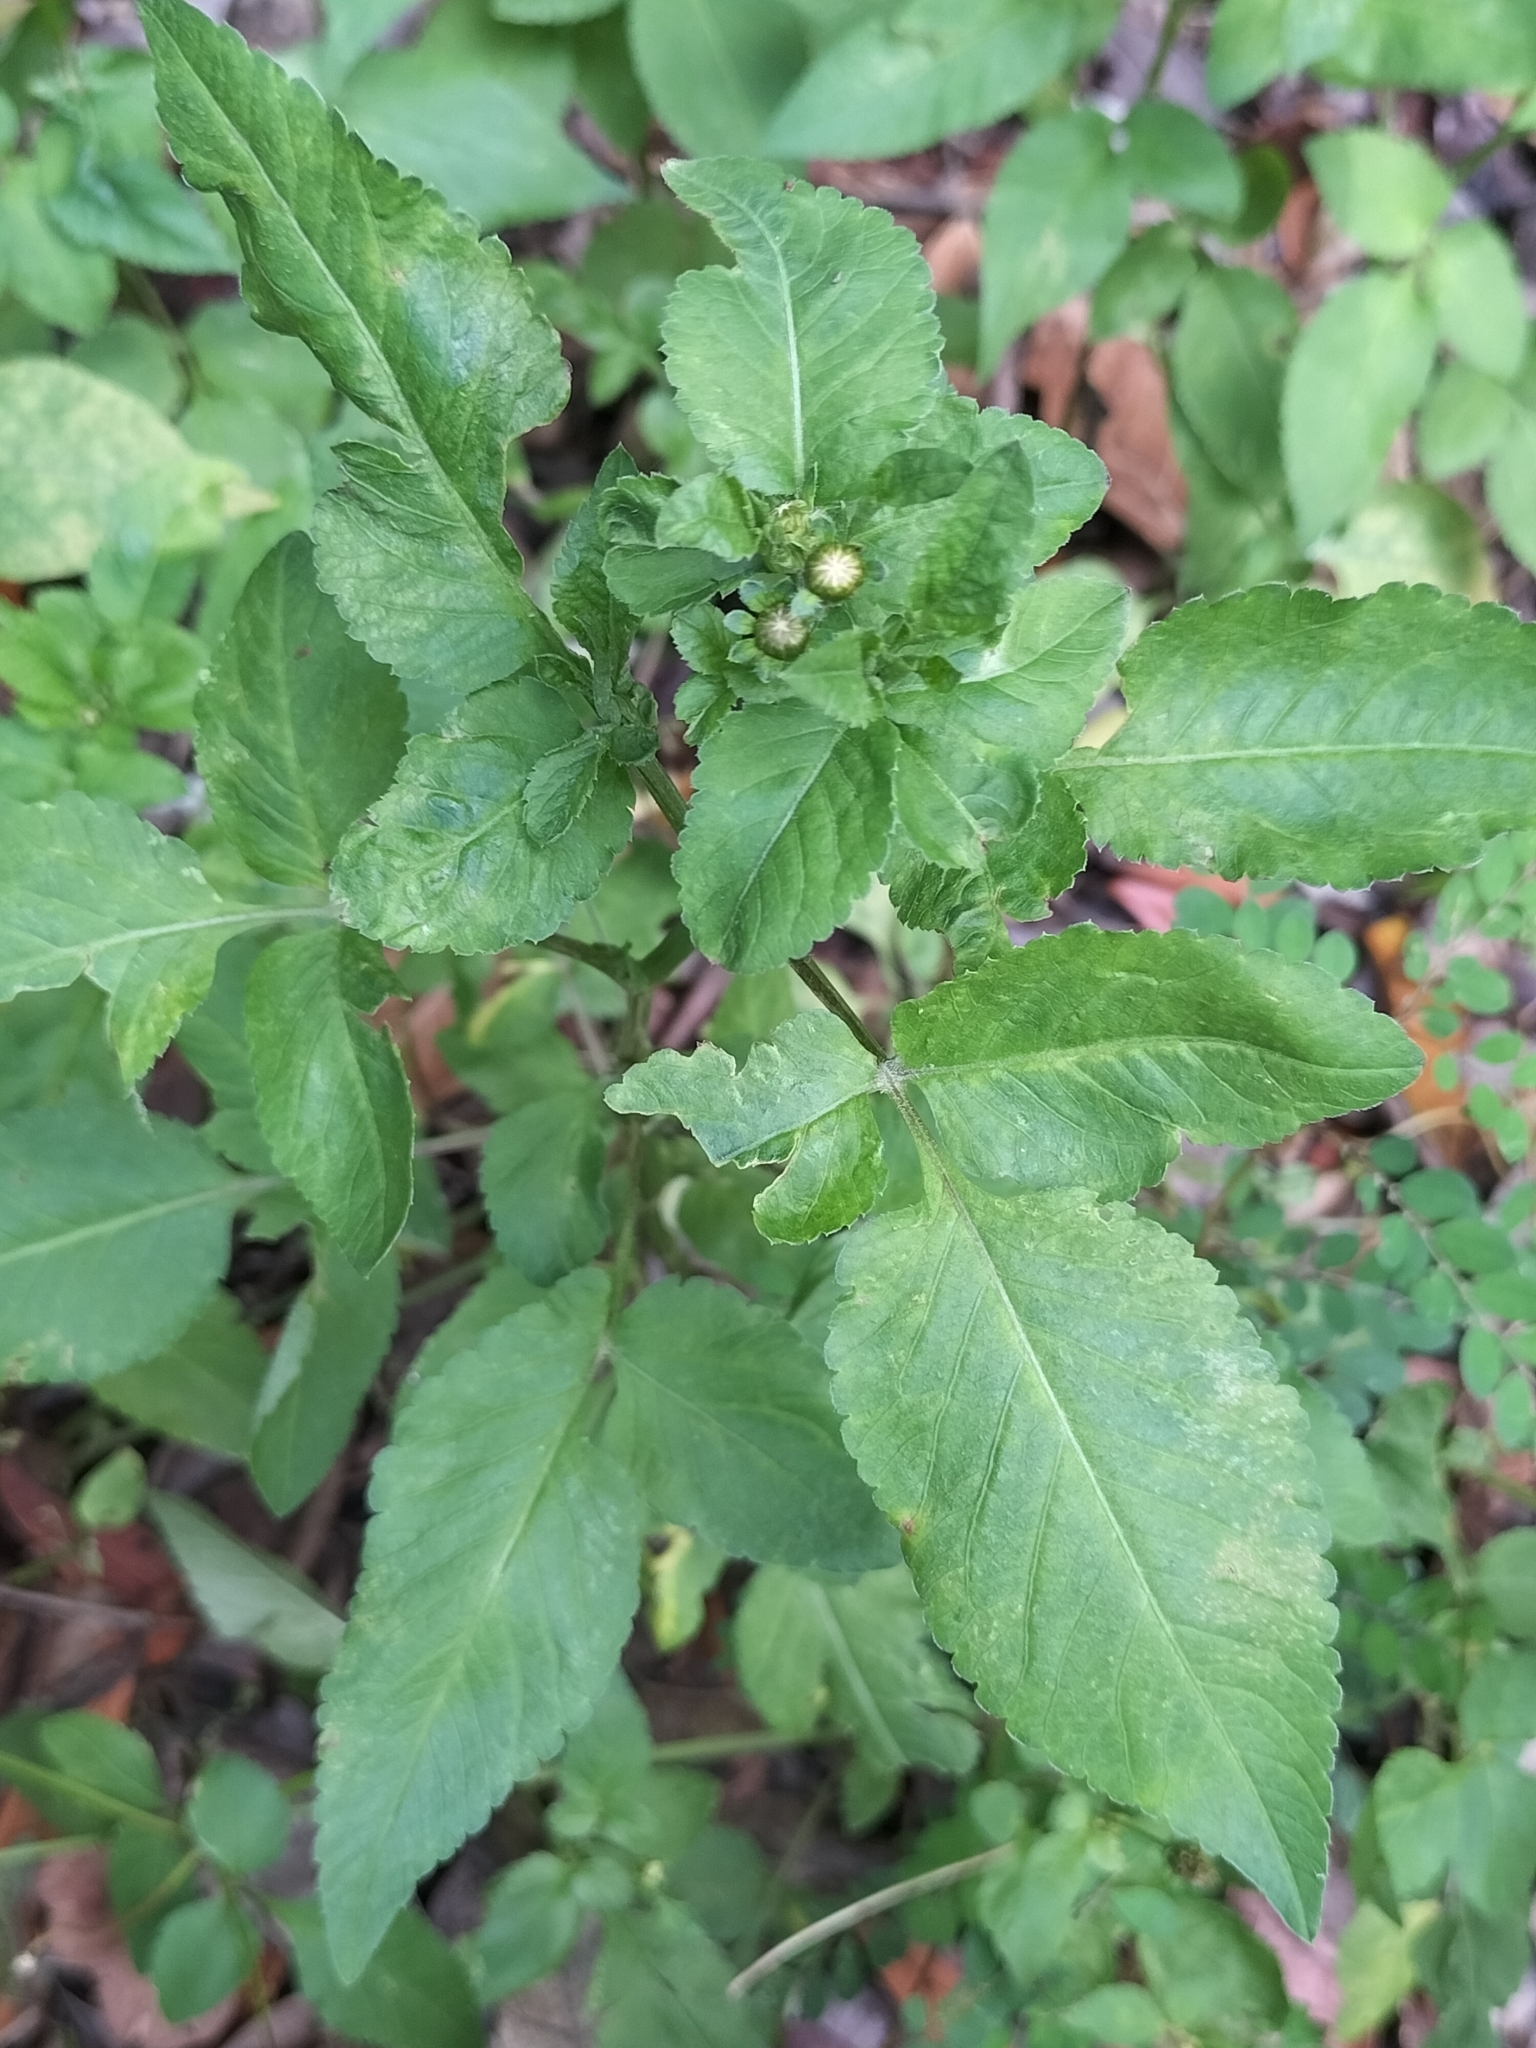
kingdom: Plantae
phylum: Tracheophyta
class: Magnoliopsida
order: Asterales
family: Asteraceae
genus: Bidens
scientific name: Bidens pilosa
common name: Black-jack
